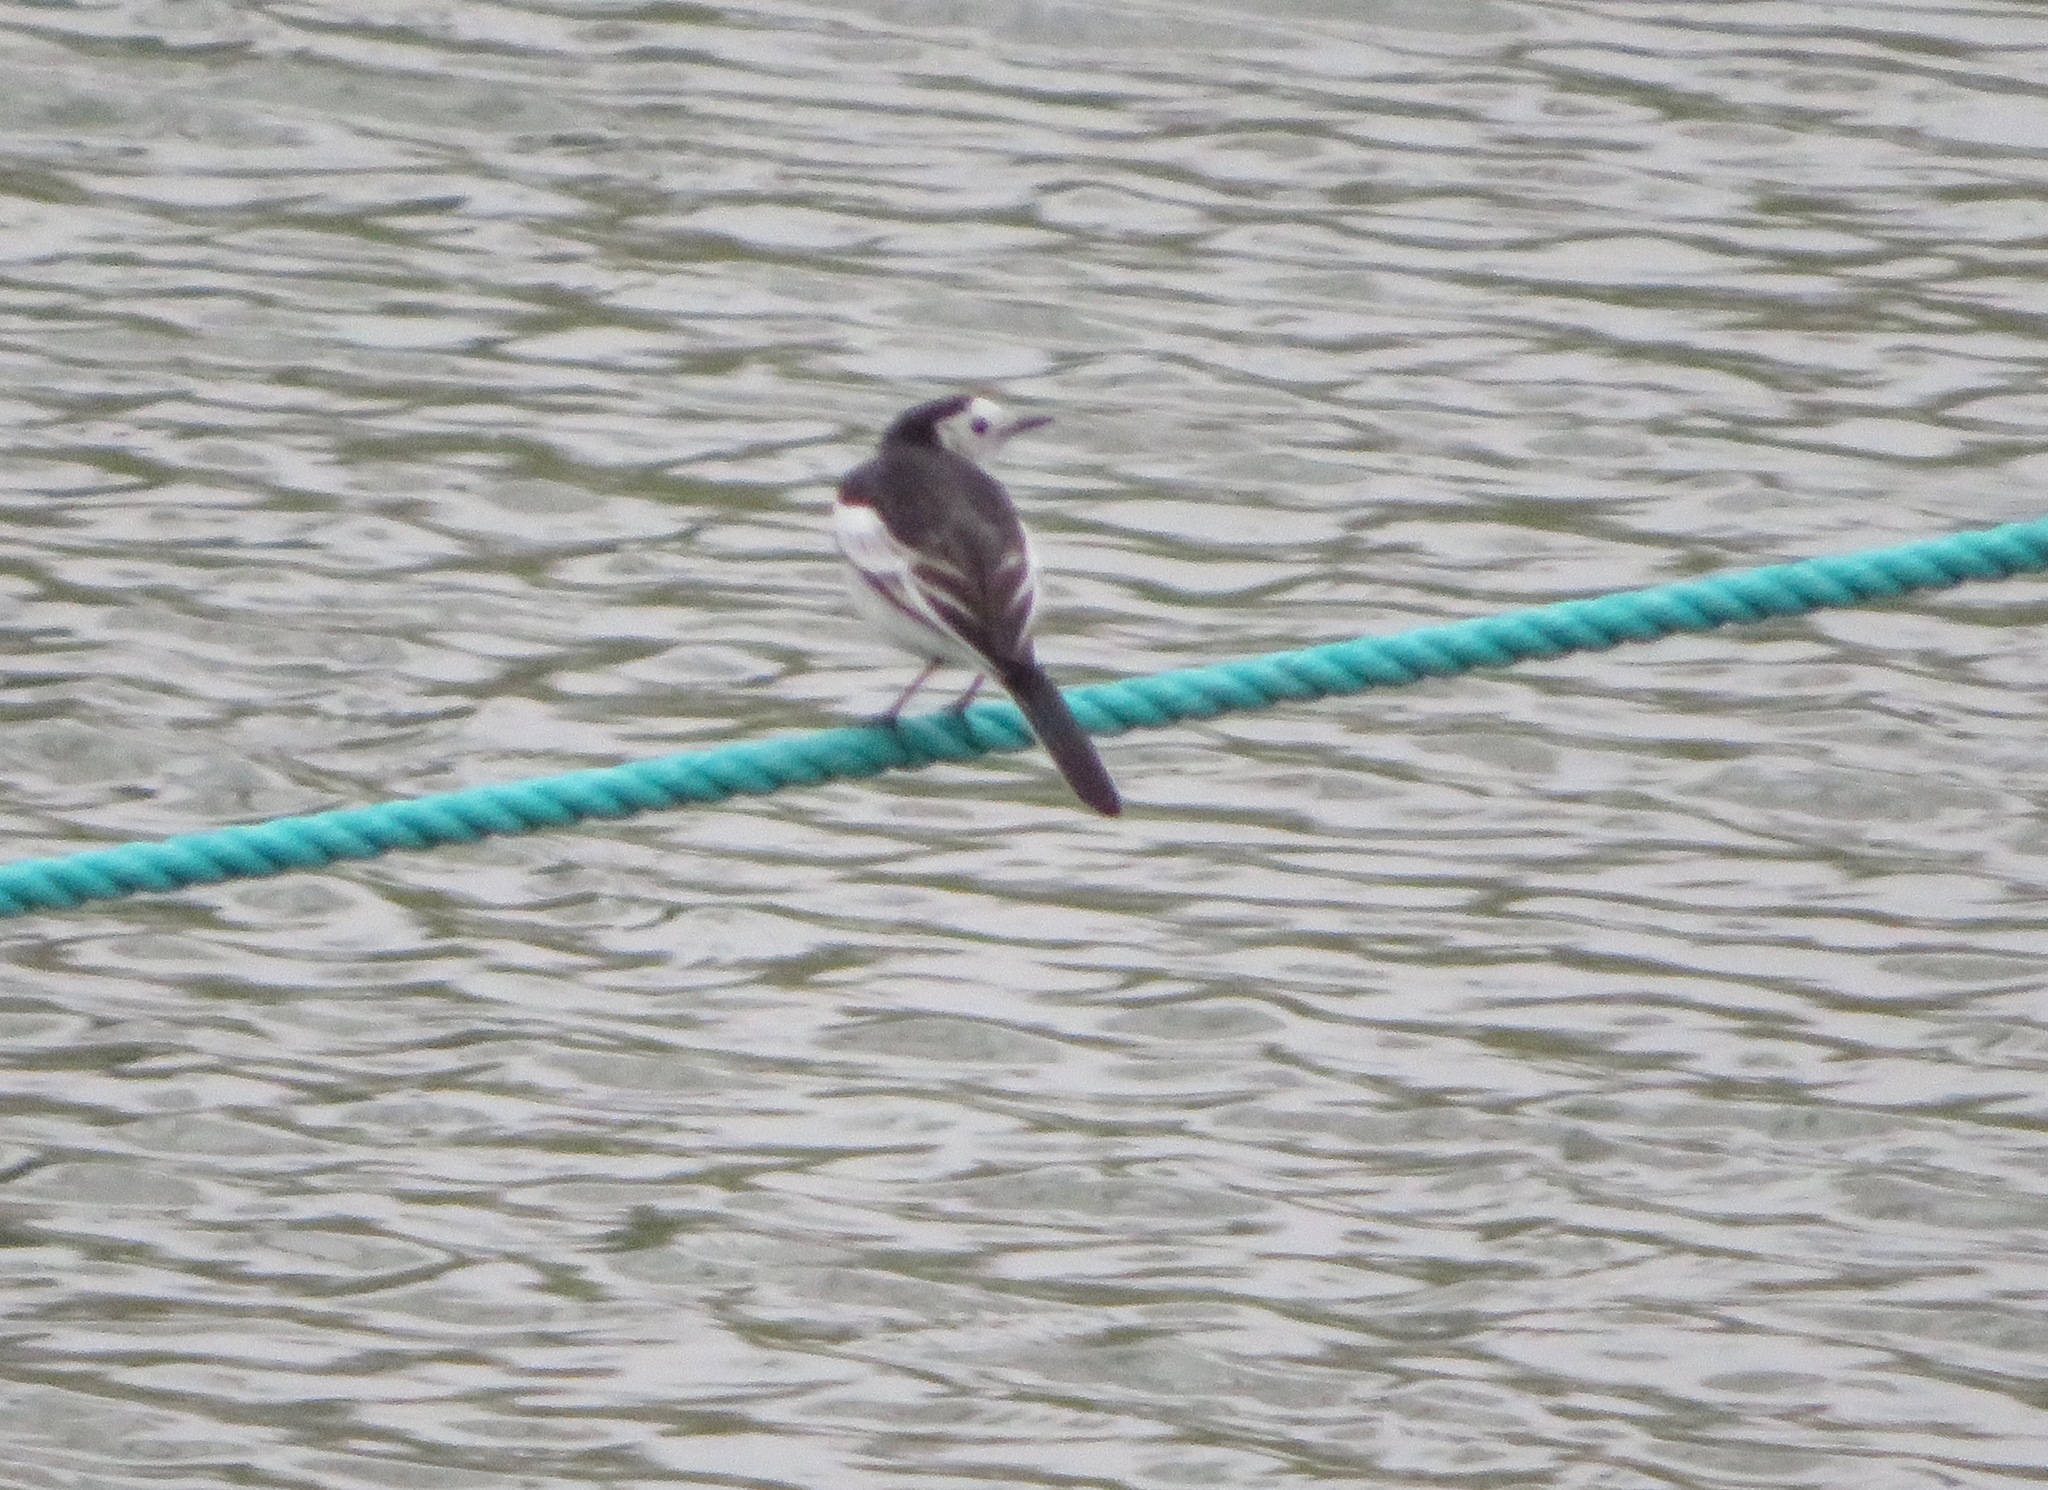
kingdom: Animalia
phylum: Chordata
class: Aves
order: Passeriformes
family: Motacillidae
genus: Motacilla
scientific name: Motacilla alba
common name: White wagtail
